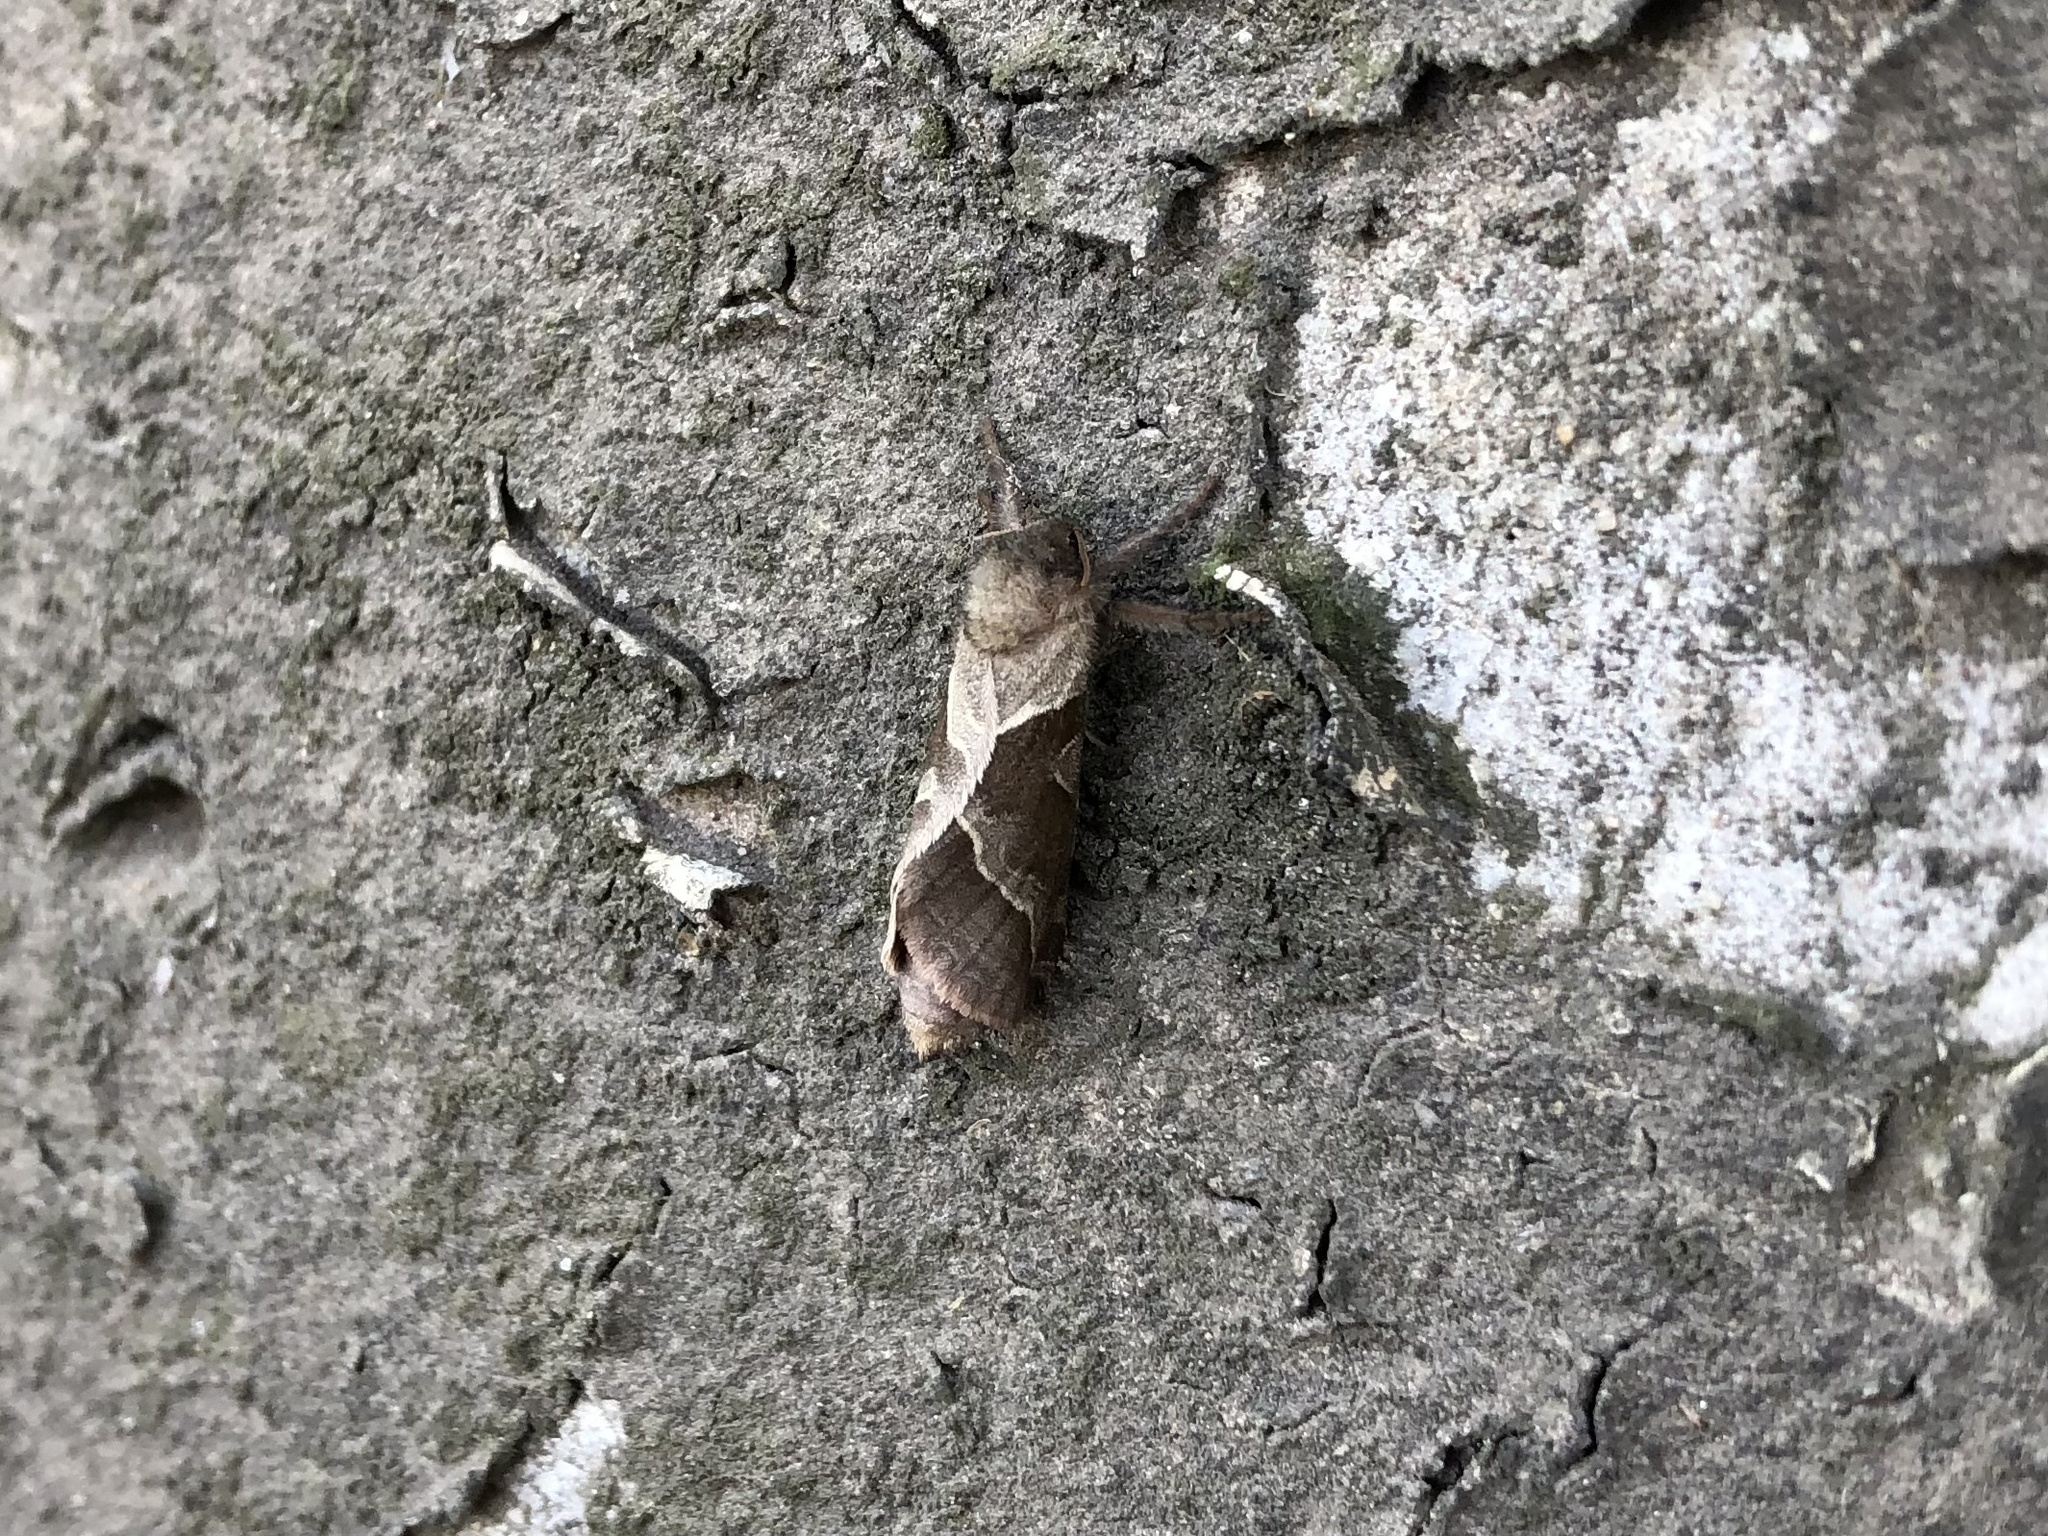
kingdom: Animalia
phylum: Arthropoda
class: Insecta
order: Lepidoptera
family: Hepialidae
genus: Triodia
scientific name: Triodia sylvina
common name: Orange swift
